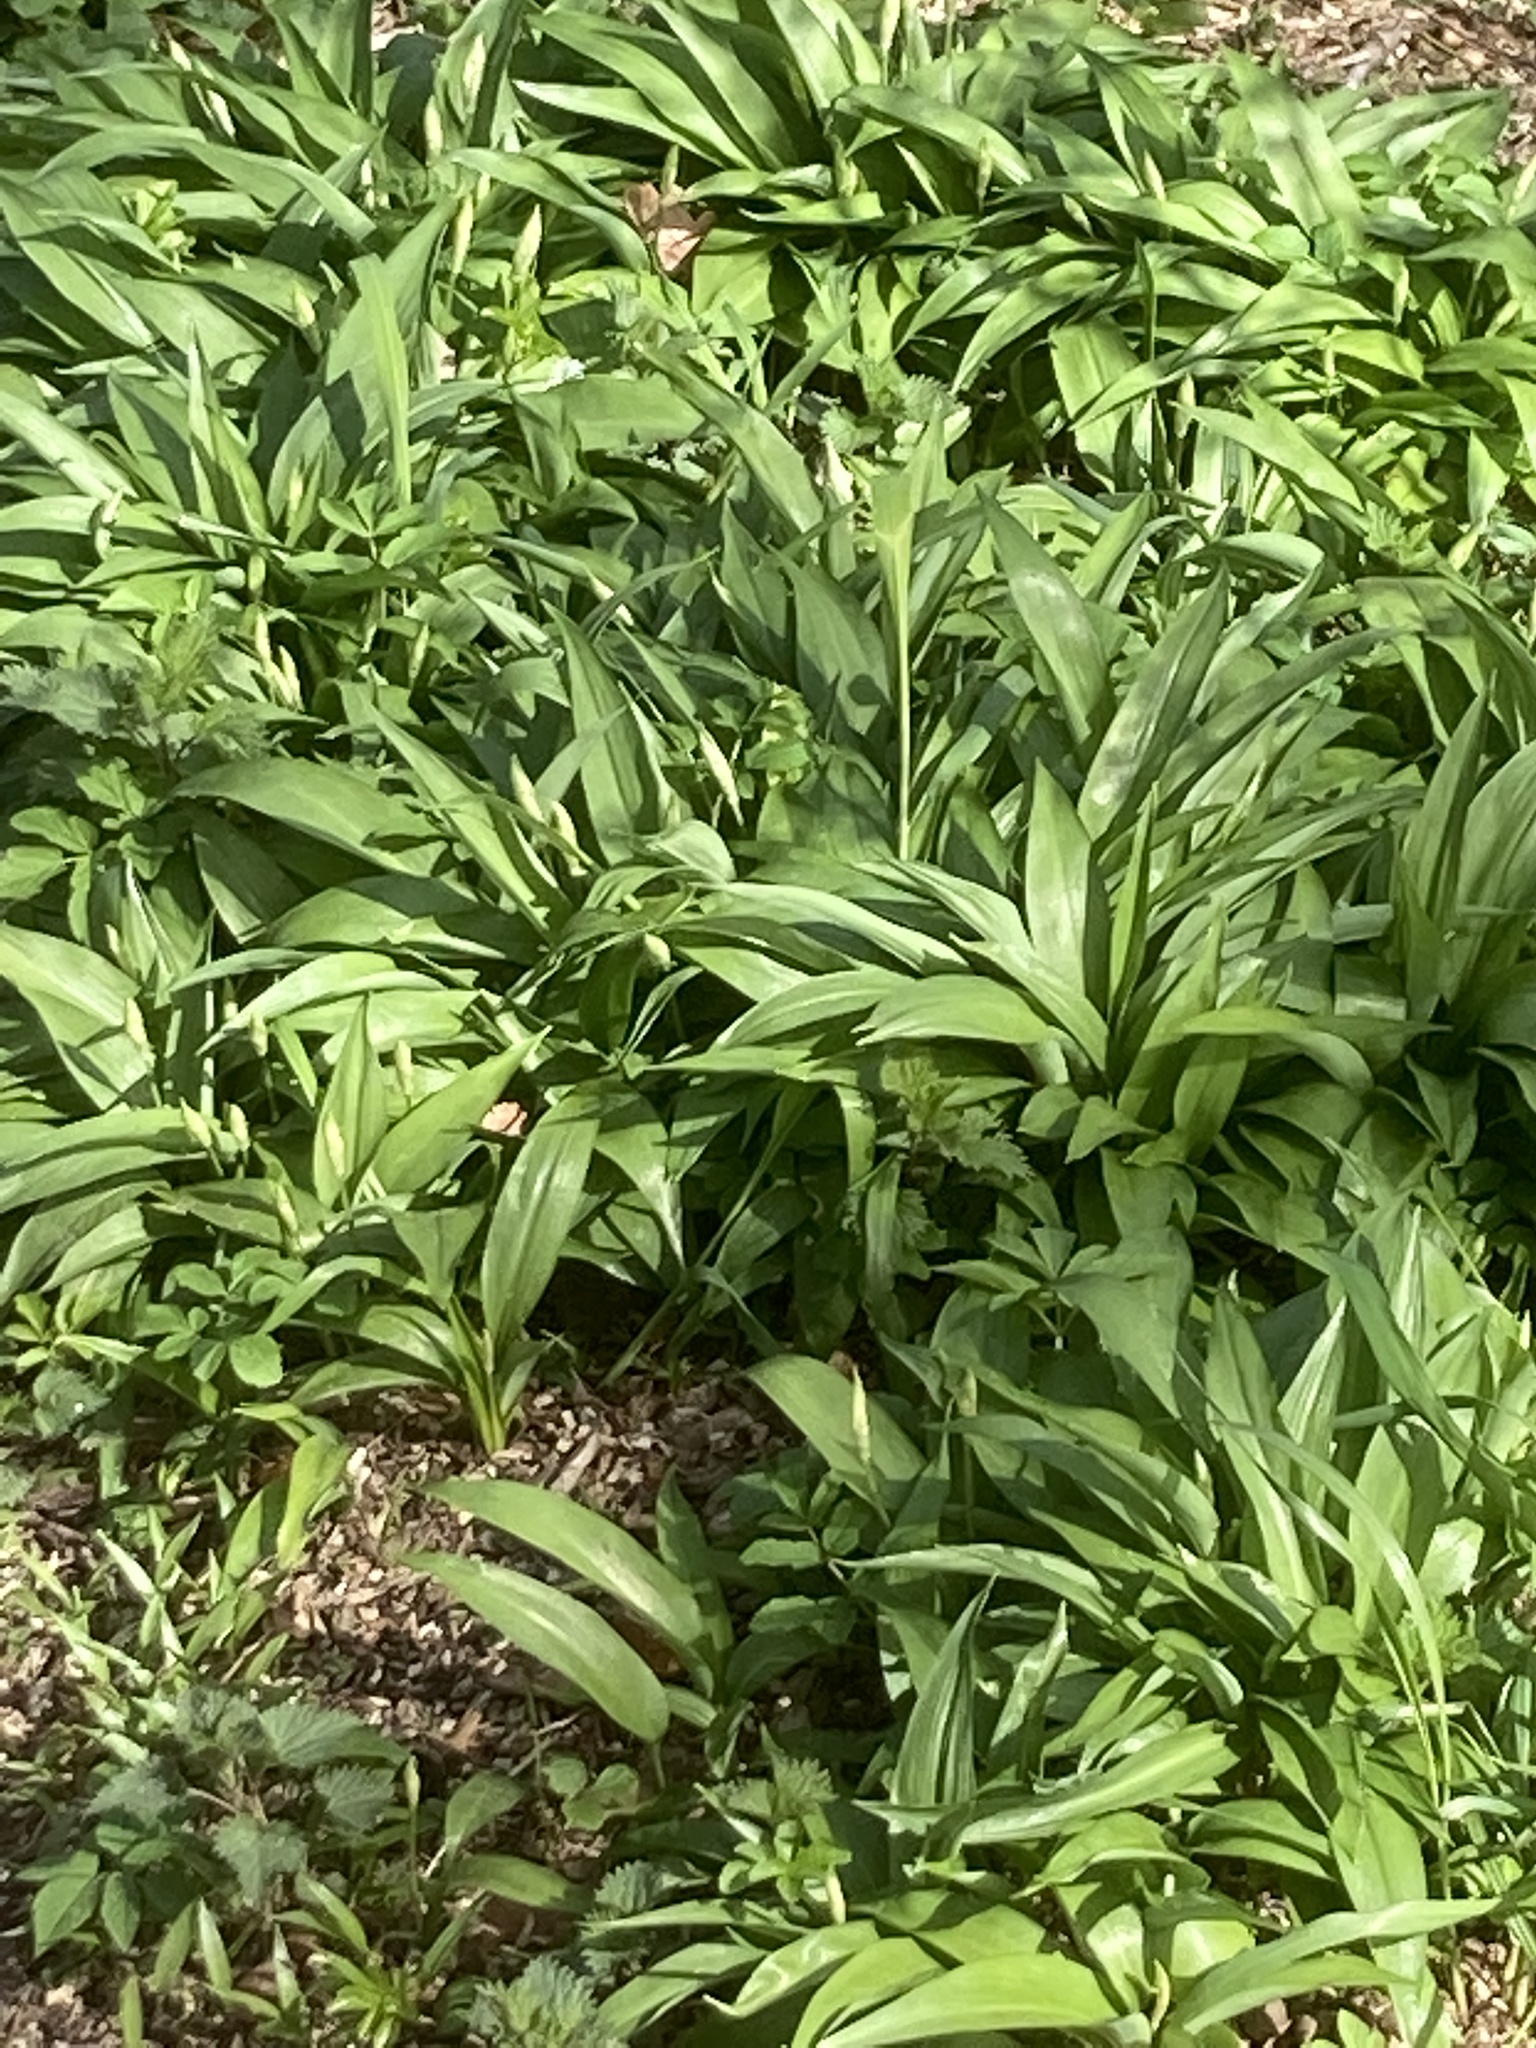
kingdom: Plantae
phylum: Tracheophyta
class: Liliopsida
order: Asparagales
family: Amaryllidaceae
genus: Allium
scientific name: Allium ursinum
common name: Ramsons
